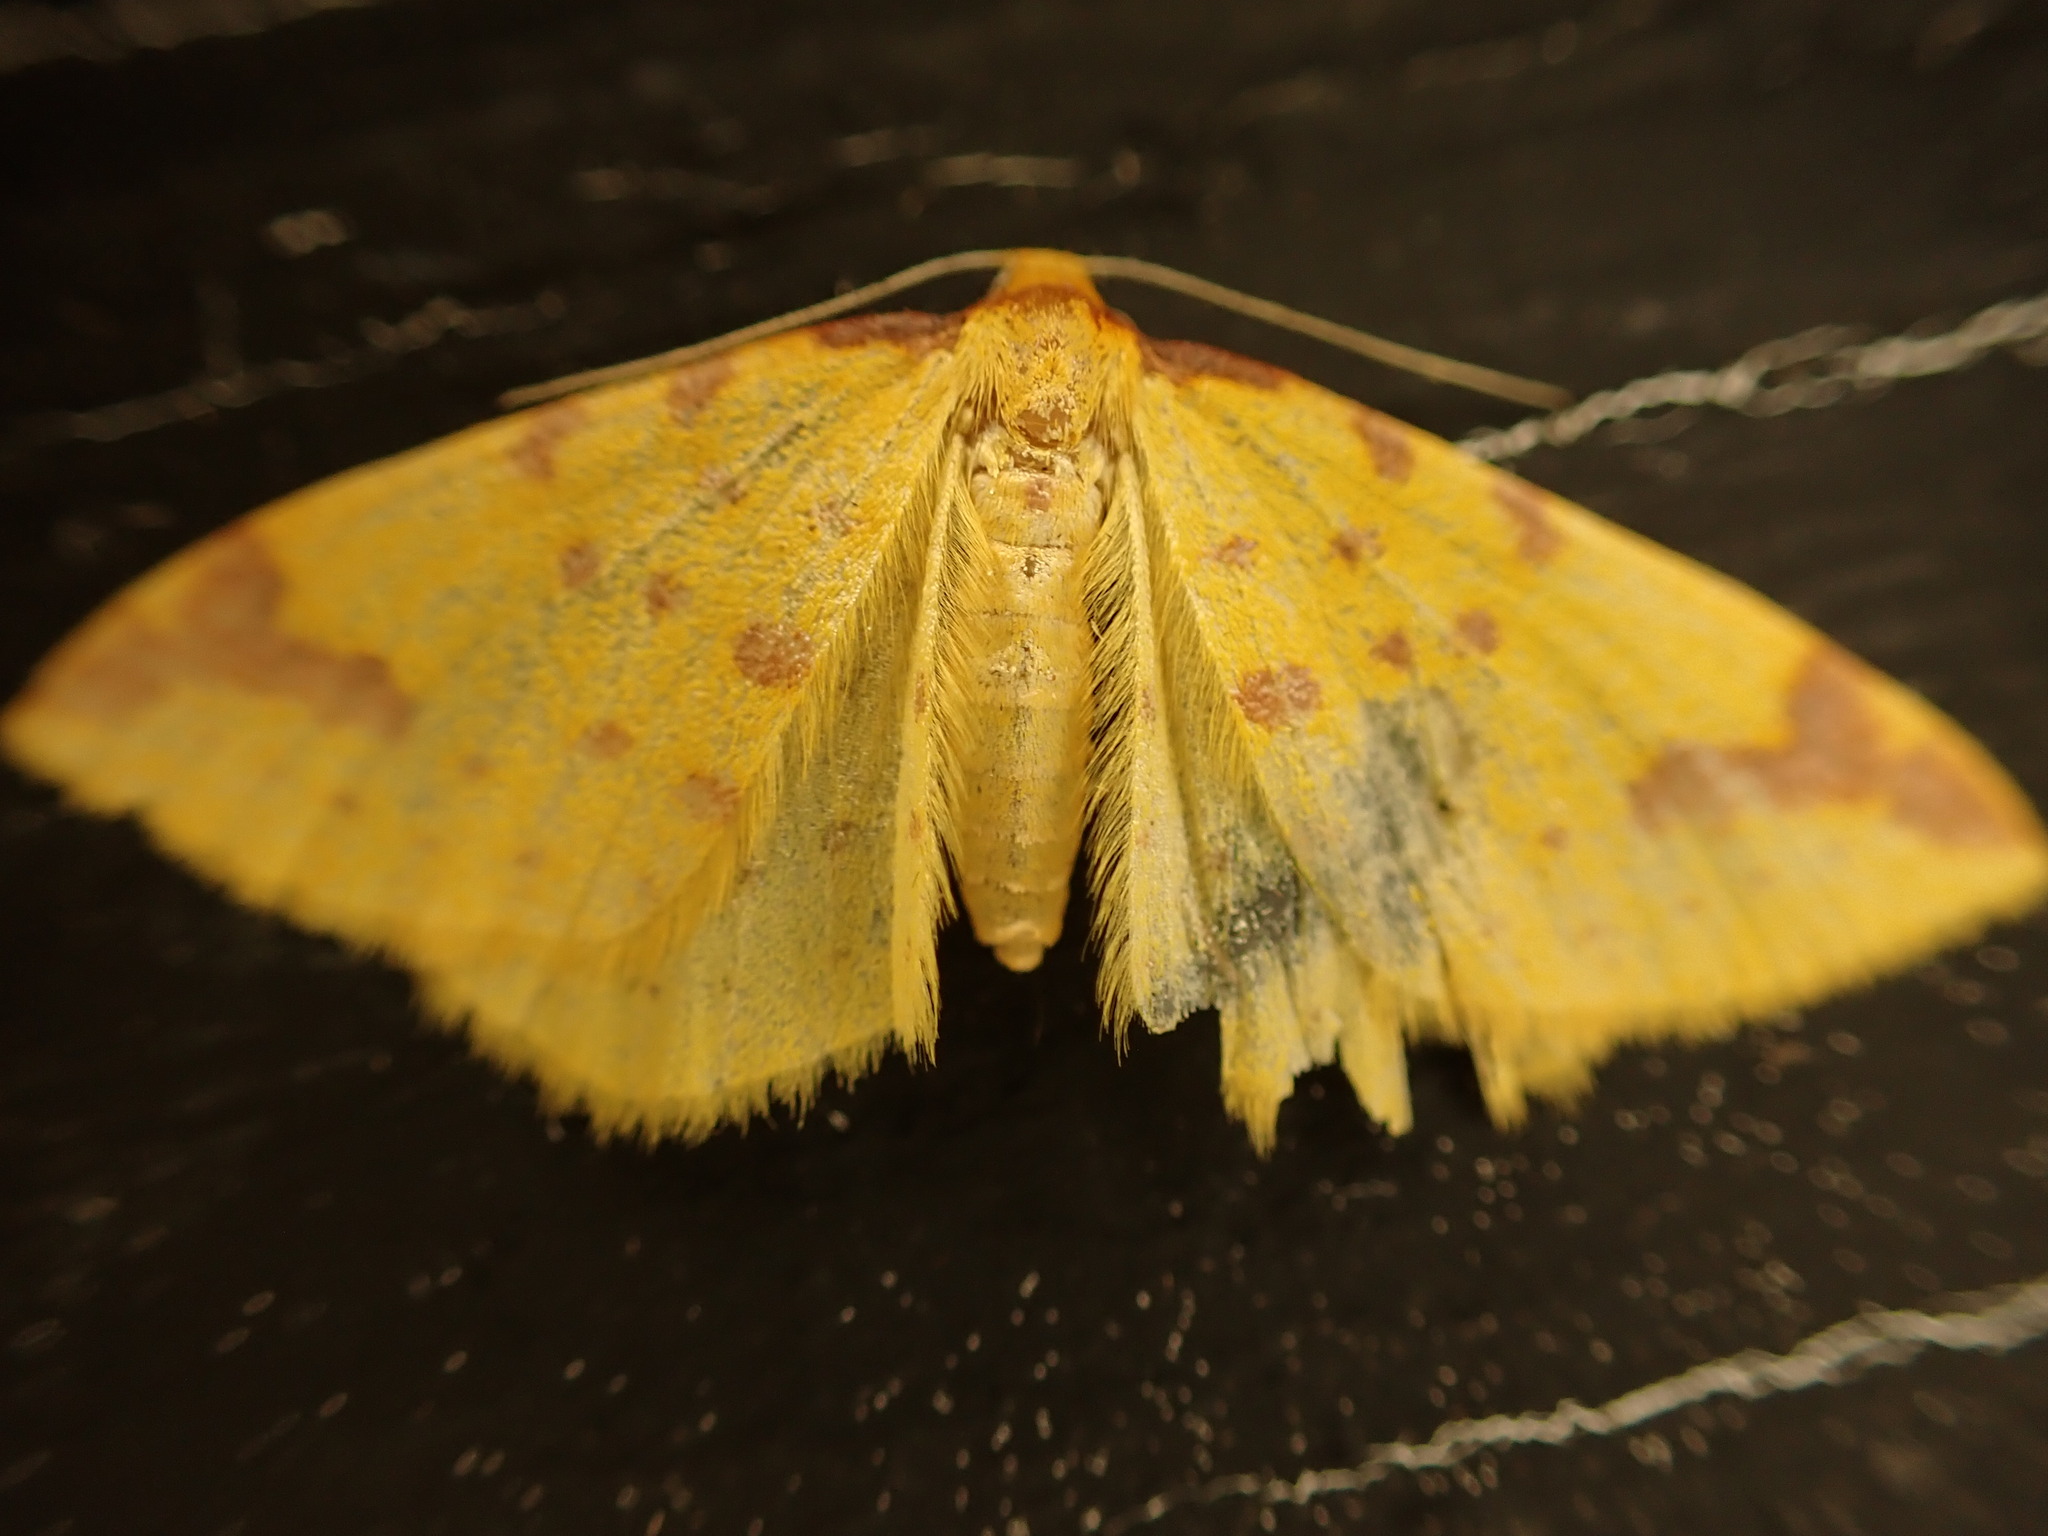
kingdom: Animalia
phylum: Arthropoda
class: Insecta
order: Lepidoptera
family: Geometridae
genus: Orthoclydon
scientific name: Orthoclydon chlorias
